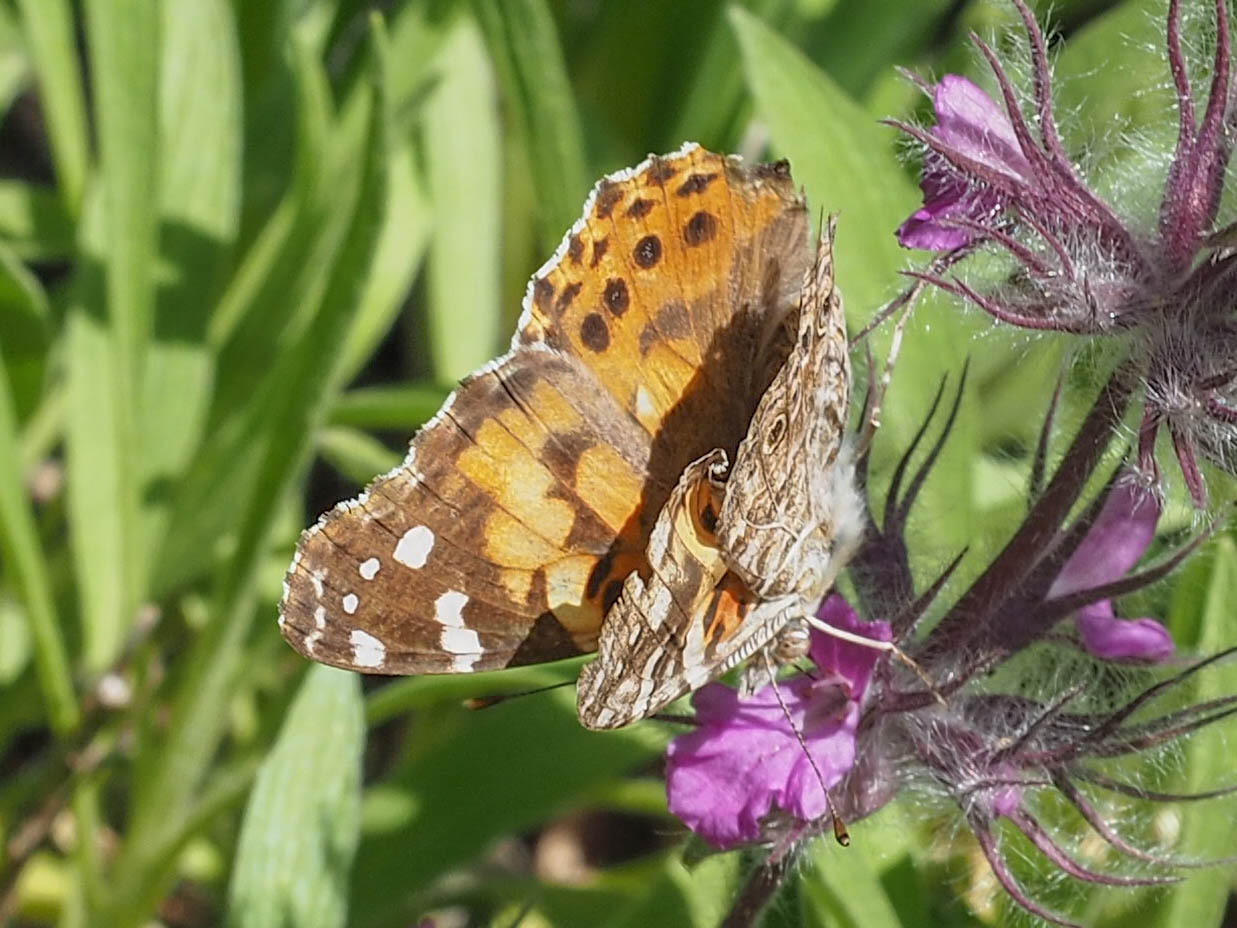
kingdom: Animalia
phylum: Arthropoda
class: Insecta
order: Lepidoptera
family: Nymphalidae
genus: Vanessa
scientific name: Vanessa cardui
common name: Painted lady
